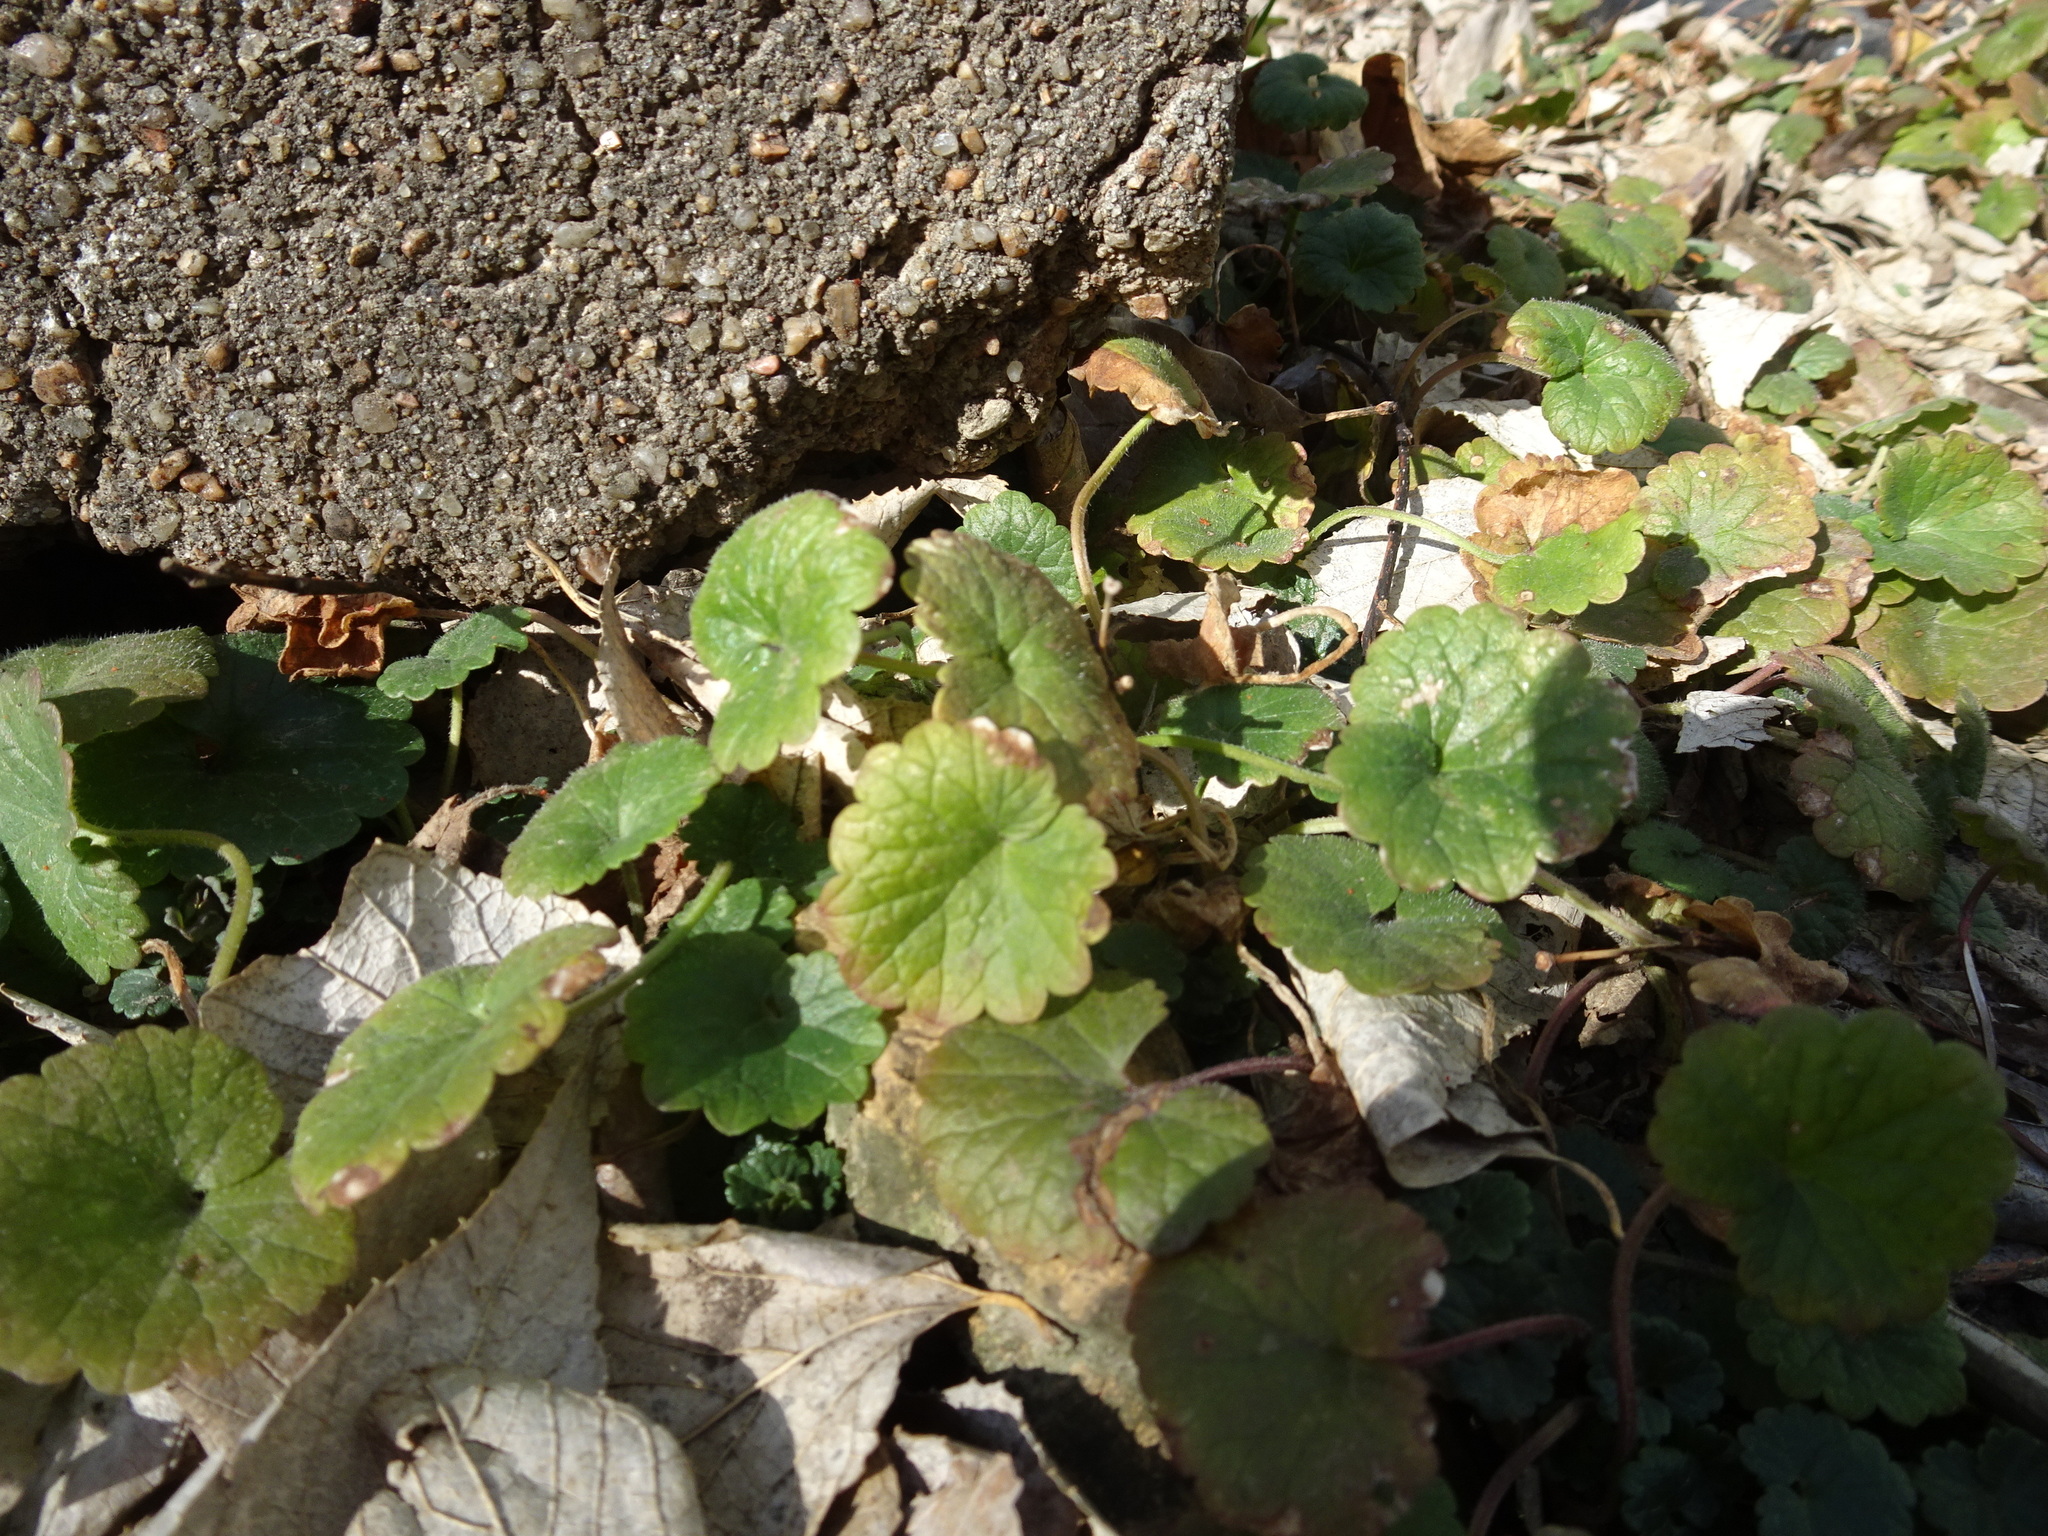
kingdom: Plantae
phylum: Tracheophyta
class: Magnoliopsida
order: Lamiales
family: Lamiaceae
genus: Glechoma
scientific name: Glechoma hederacea
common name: Ground ivy
